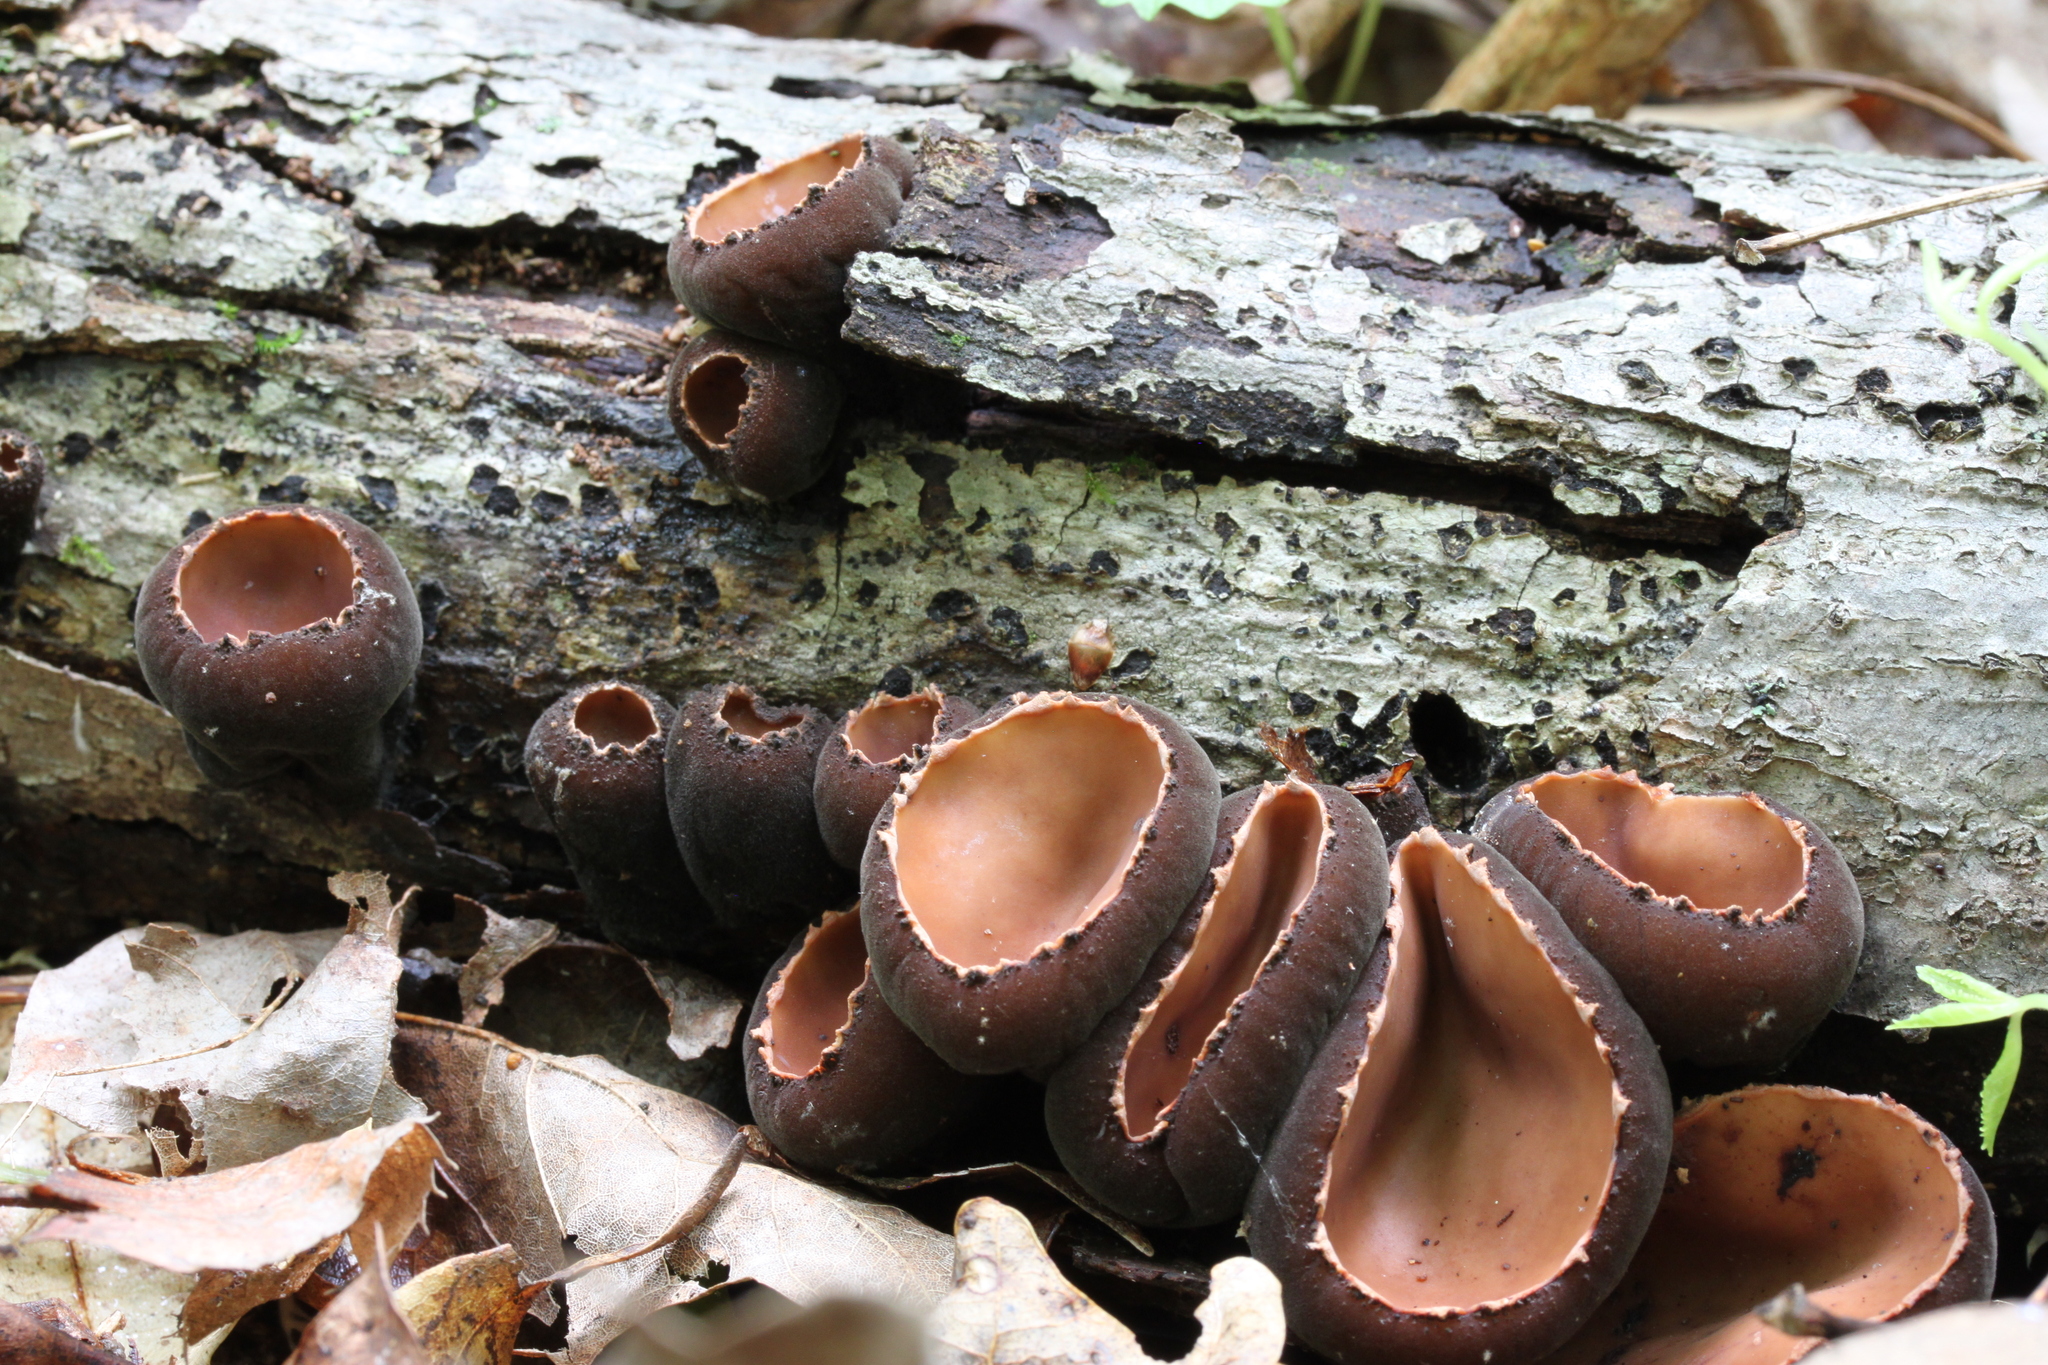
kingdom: Fungi
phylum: Ascomycota
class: Pezizomycetes
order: Pezizales
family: Sarcosomataceae
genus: Galiella
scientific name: Galiella rufa
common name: Hairy rubber cup
